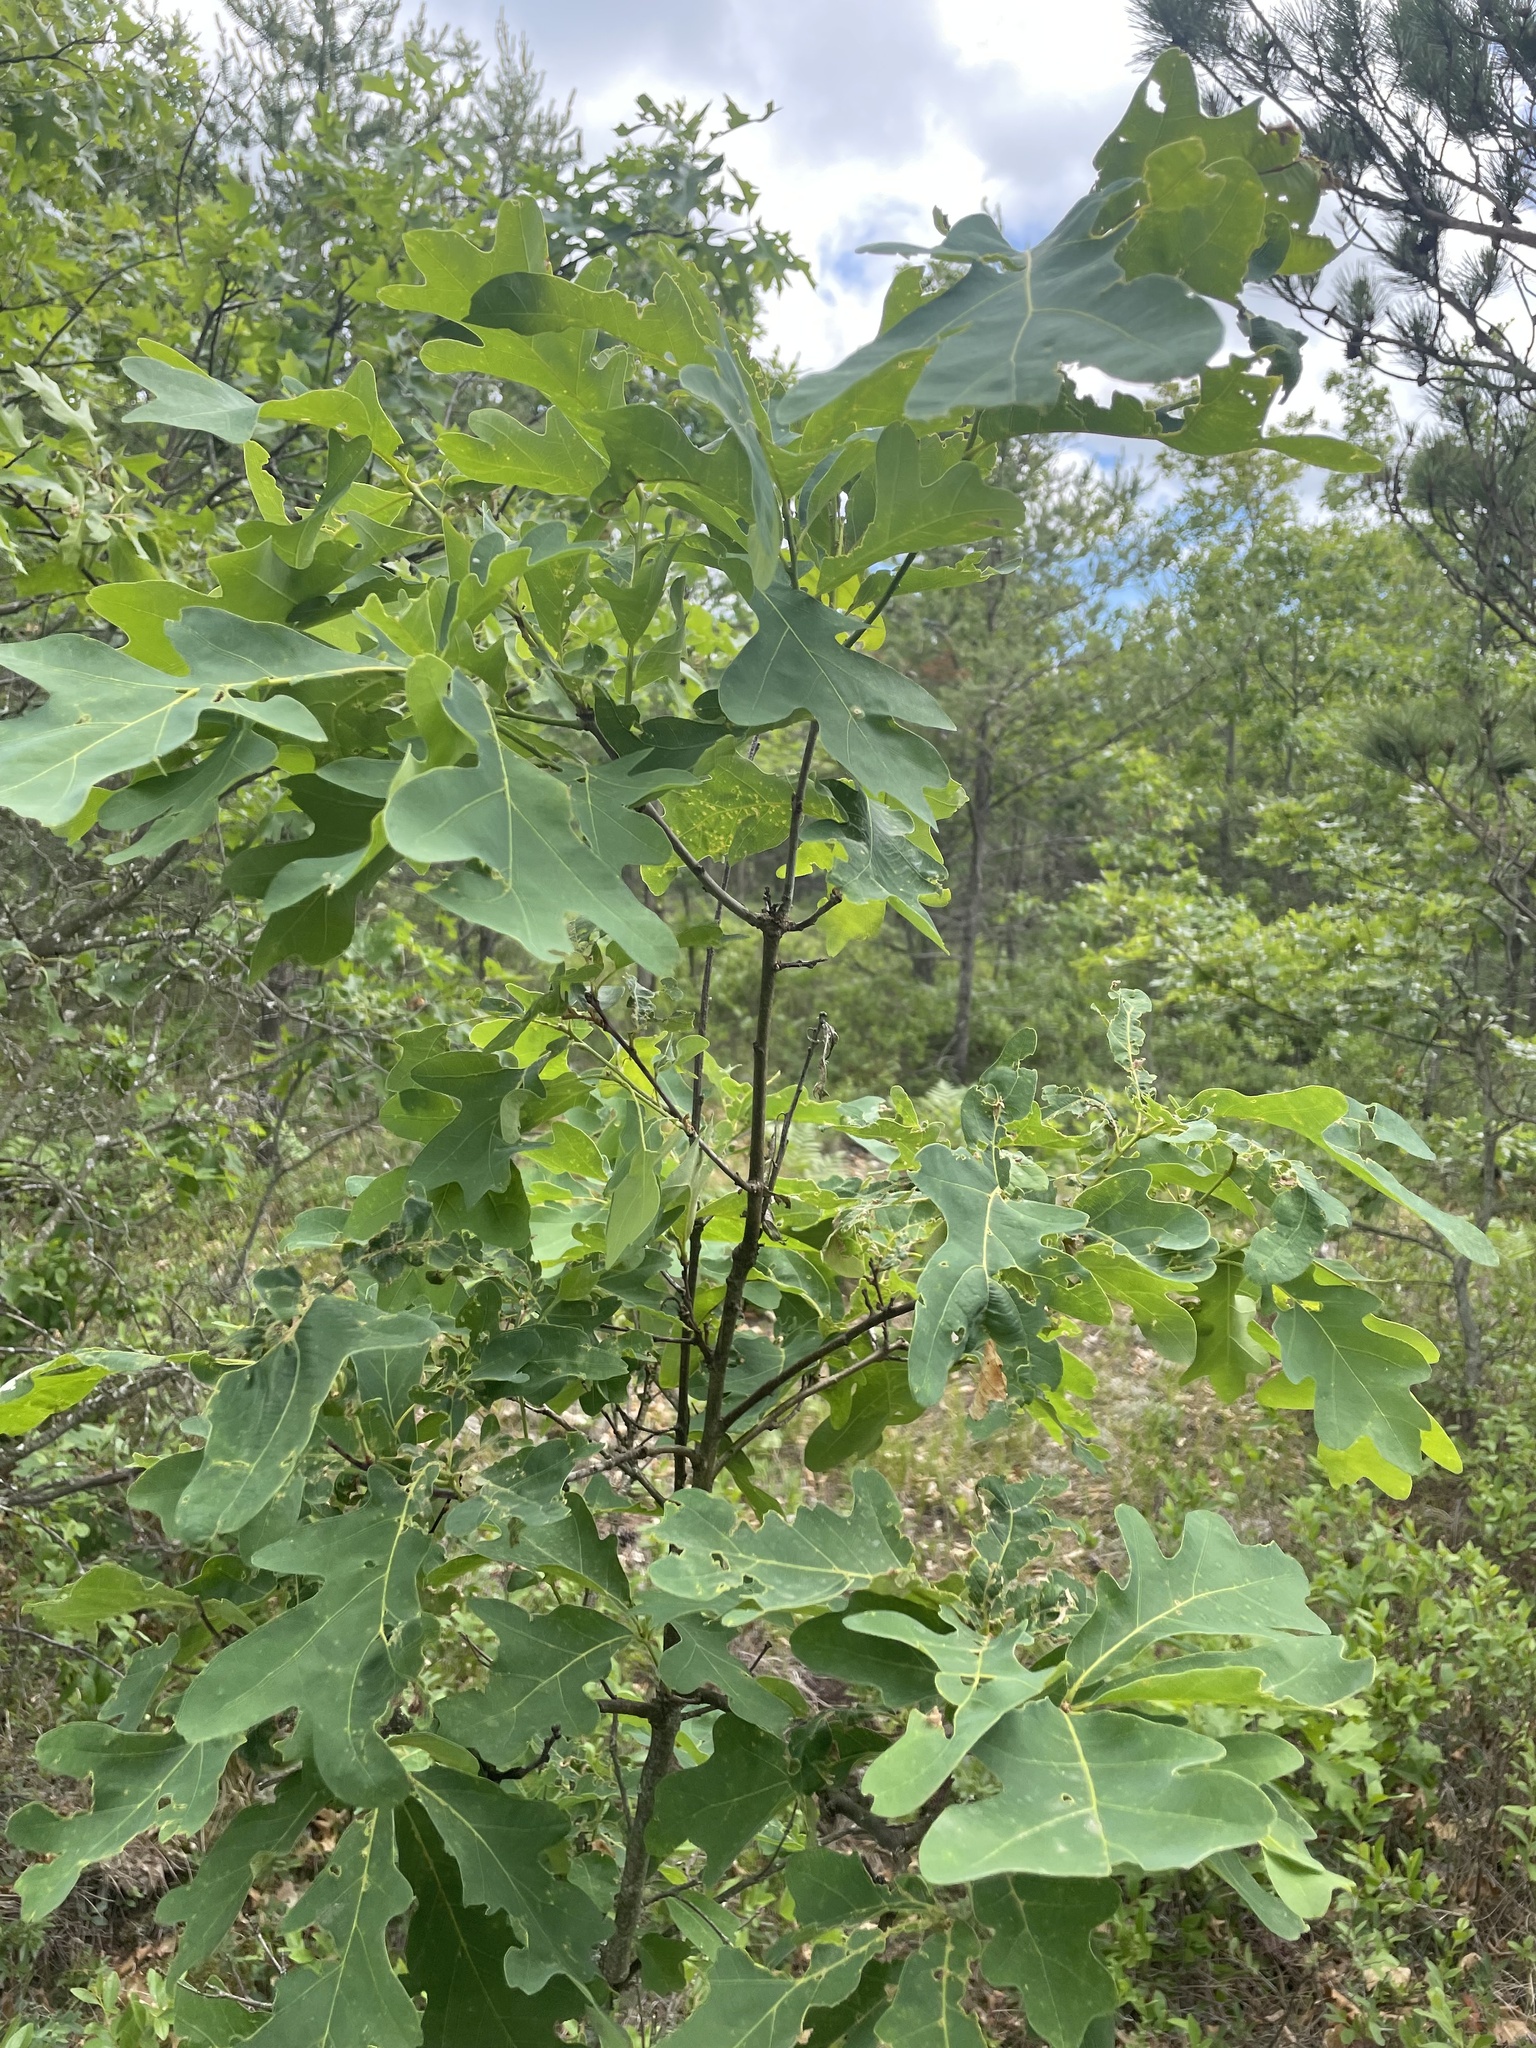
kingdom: Plantae
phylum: Tracheophyta
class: Magnoliopsida
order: Fagales
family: Fagaceae
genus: Quercus
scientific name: Quercus alba
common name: White oak
